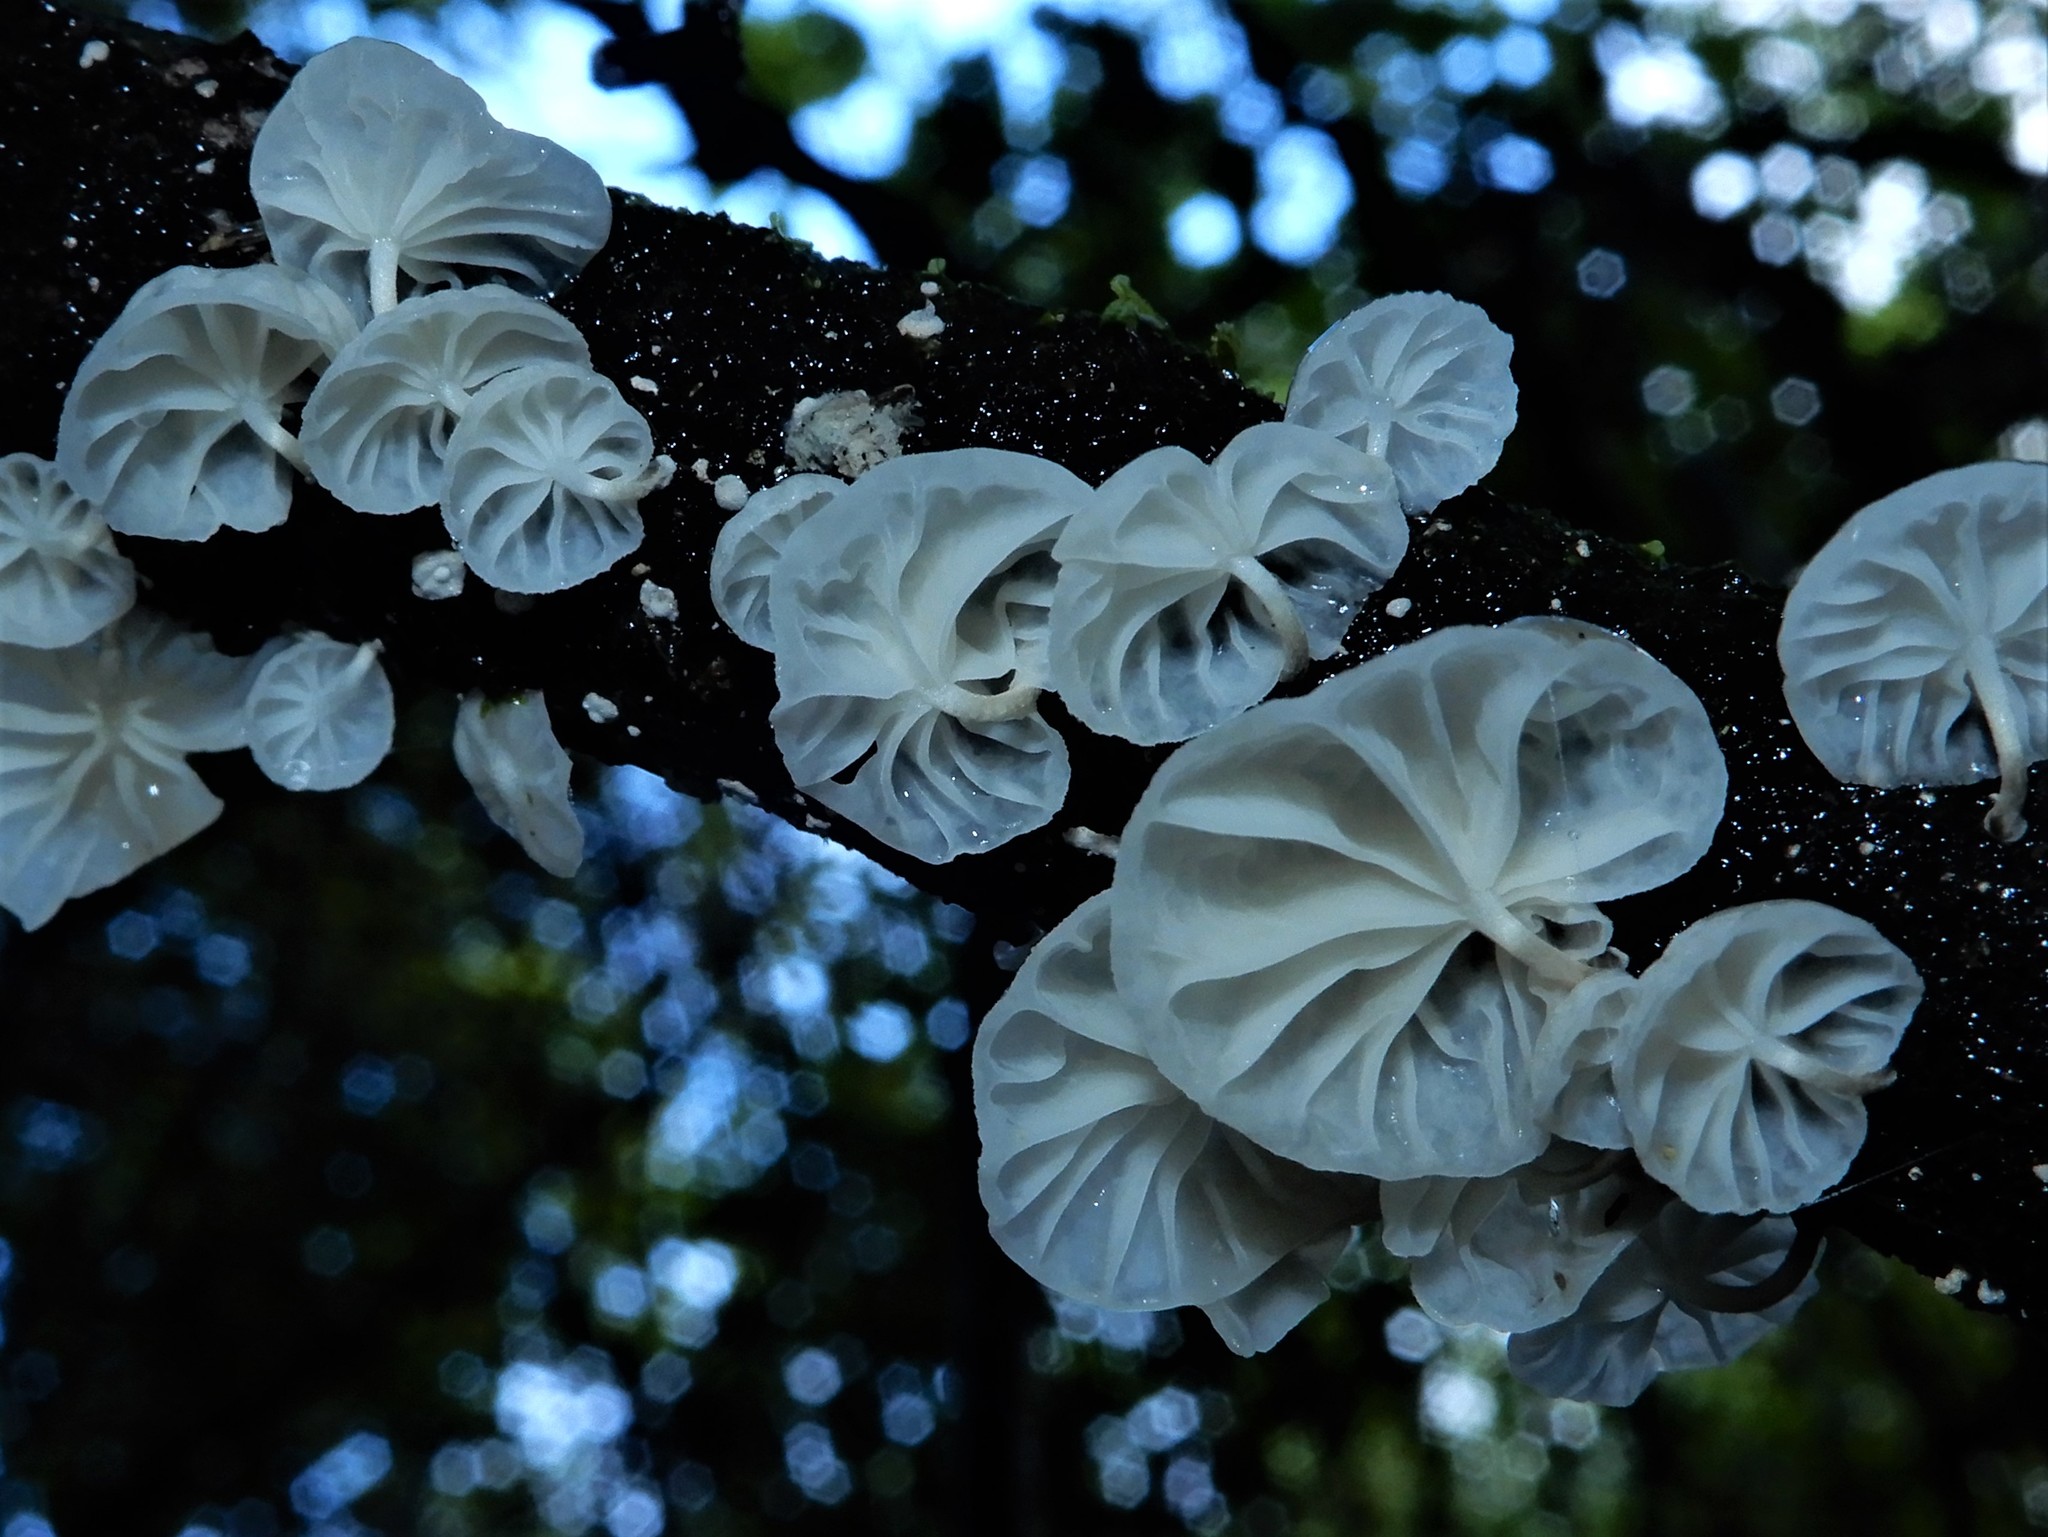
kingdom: Fungi
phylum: Basidiomycota
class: Agaricomycetes
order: Agaricales
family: Omphalotaceae
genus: Marasmiellus
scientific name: Marasmiellus candidus
